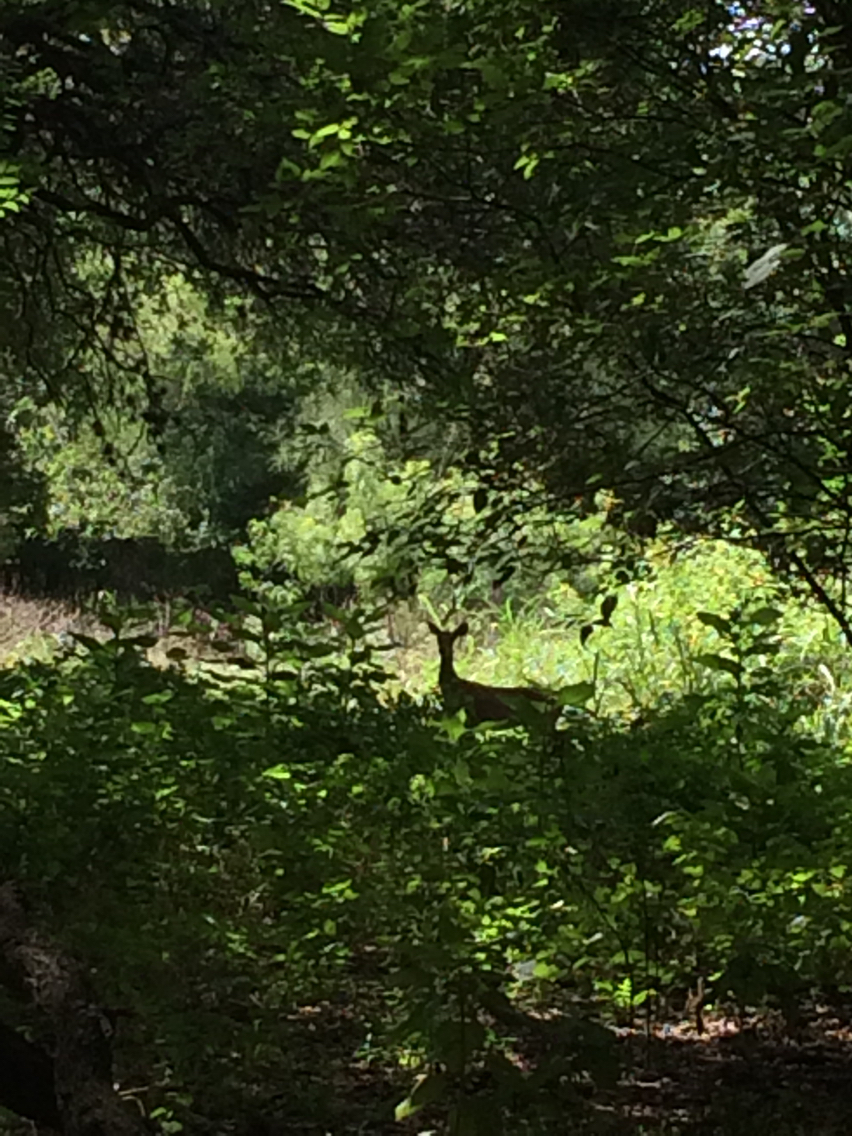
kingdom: Animalia
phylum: Chordata
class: Mammalia
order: Artiodactyla
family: Cervidae
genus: Odocoileus
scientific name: Odocoileus virginianus
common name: White-tailed deer
